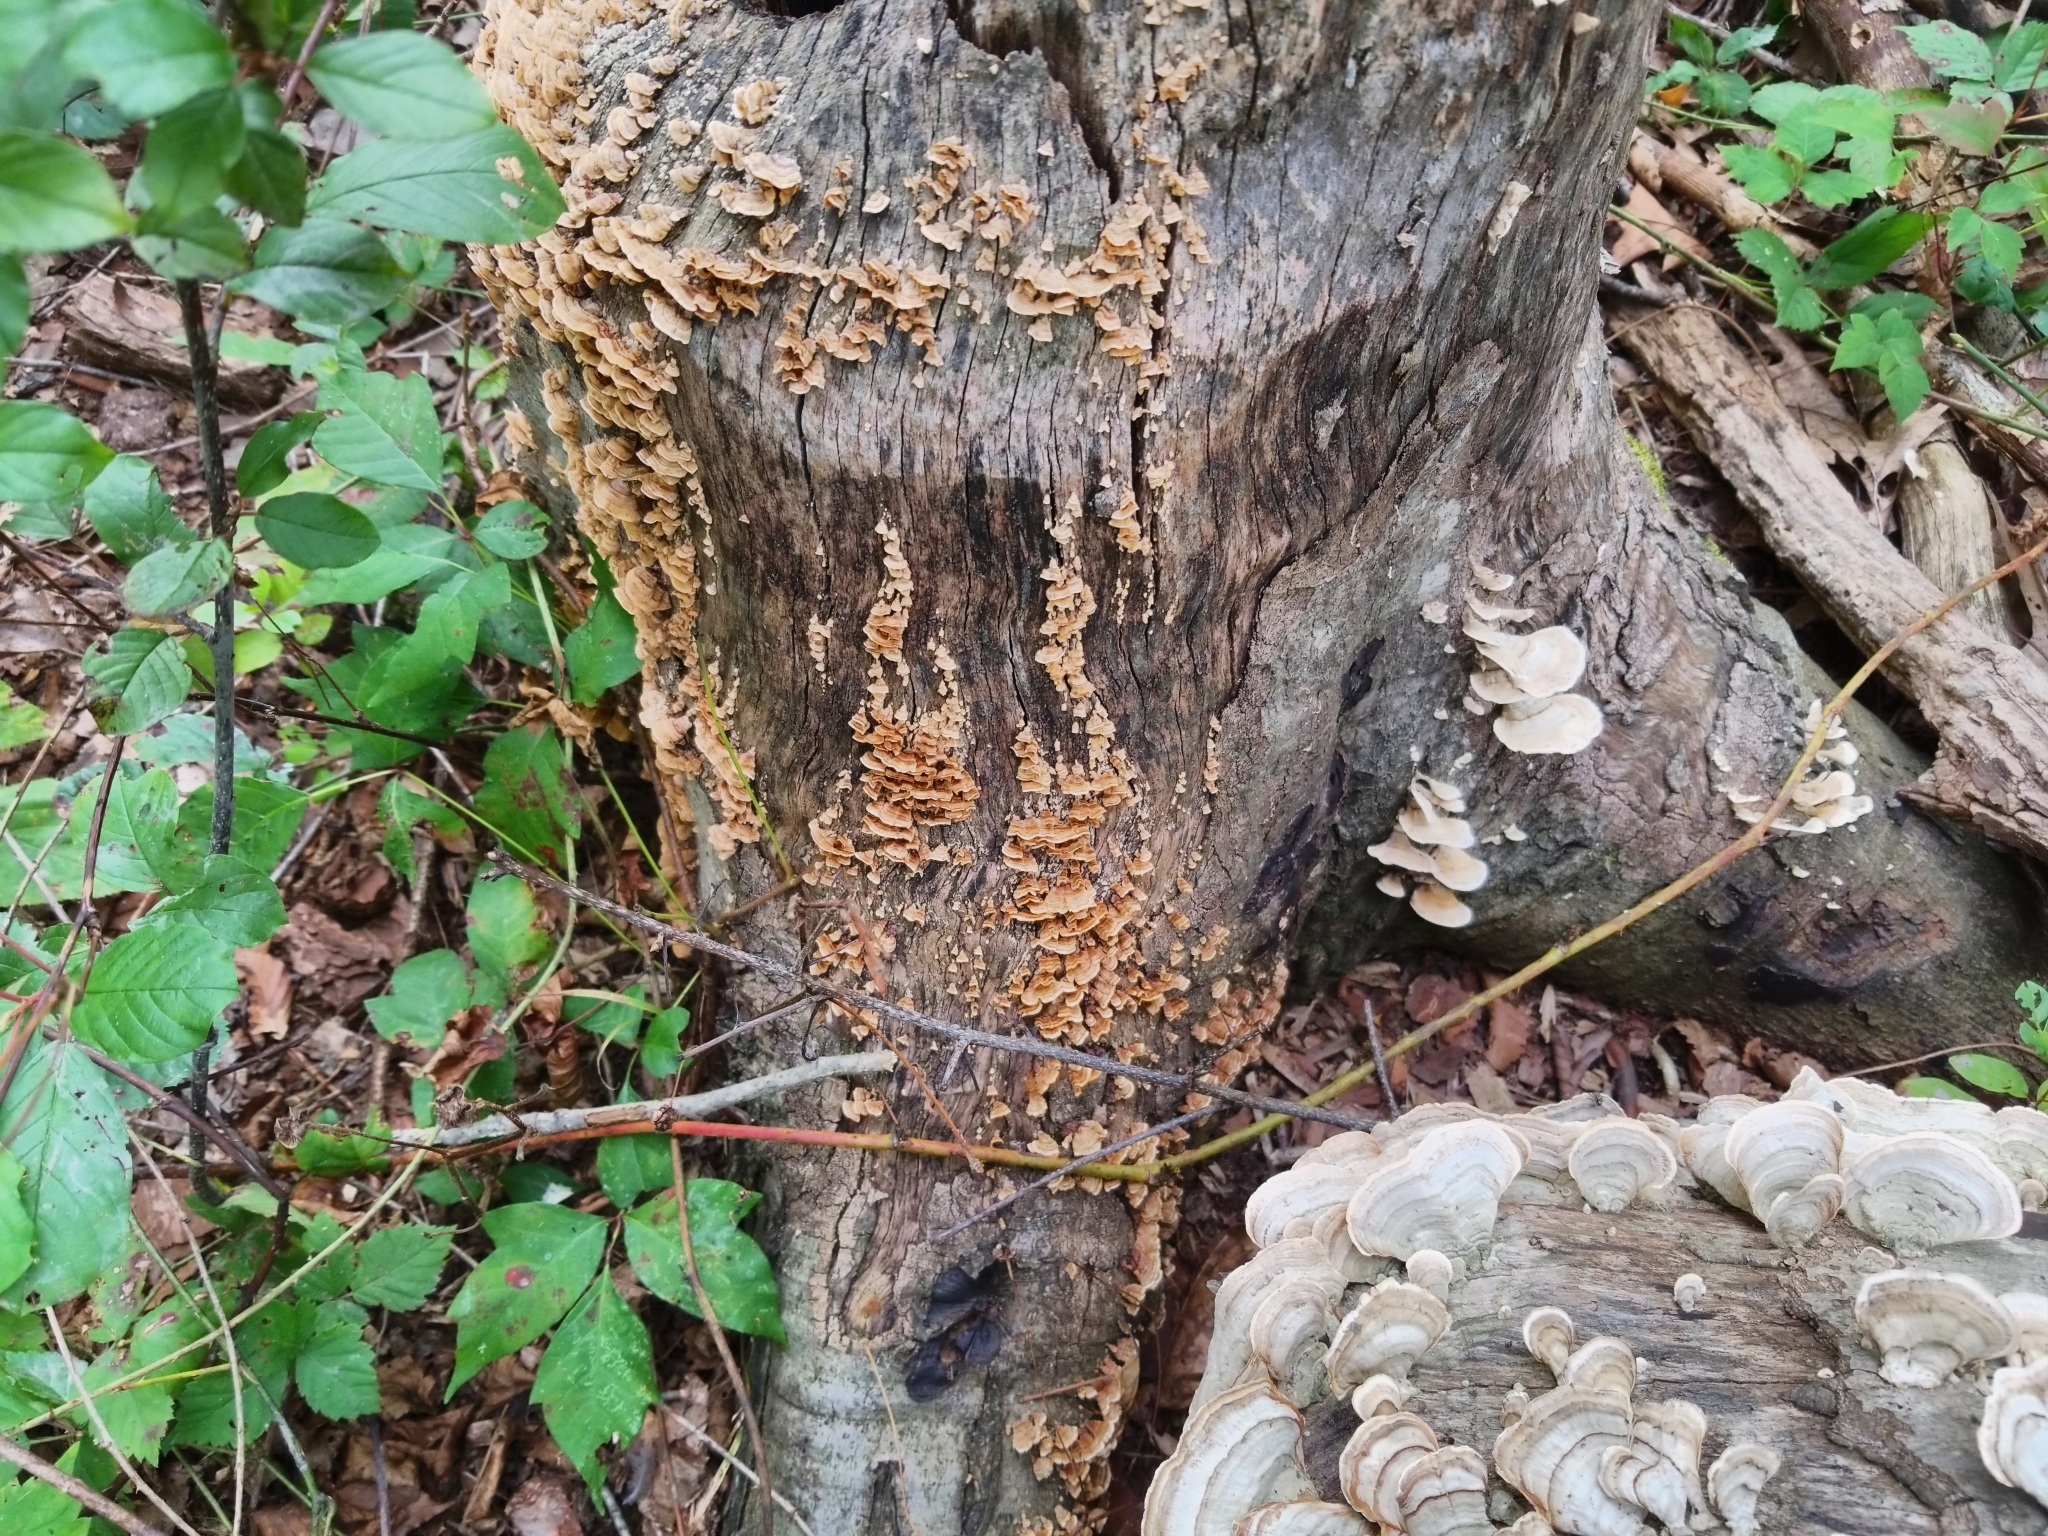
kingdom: Fungi
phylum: Basidiomycota
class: Agaricomycetes
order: Russulales
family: Stereaceae
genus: Stereum
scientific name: Stereum complicatum
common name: Crowded parchment
